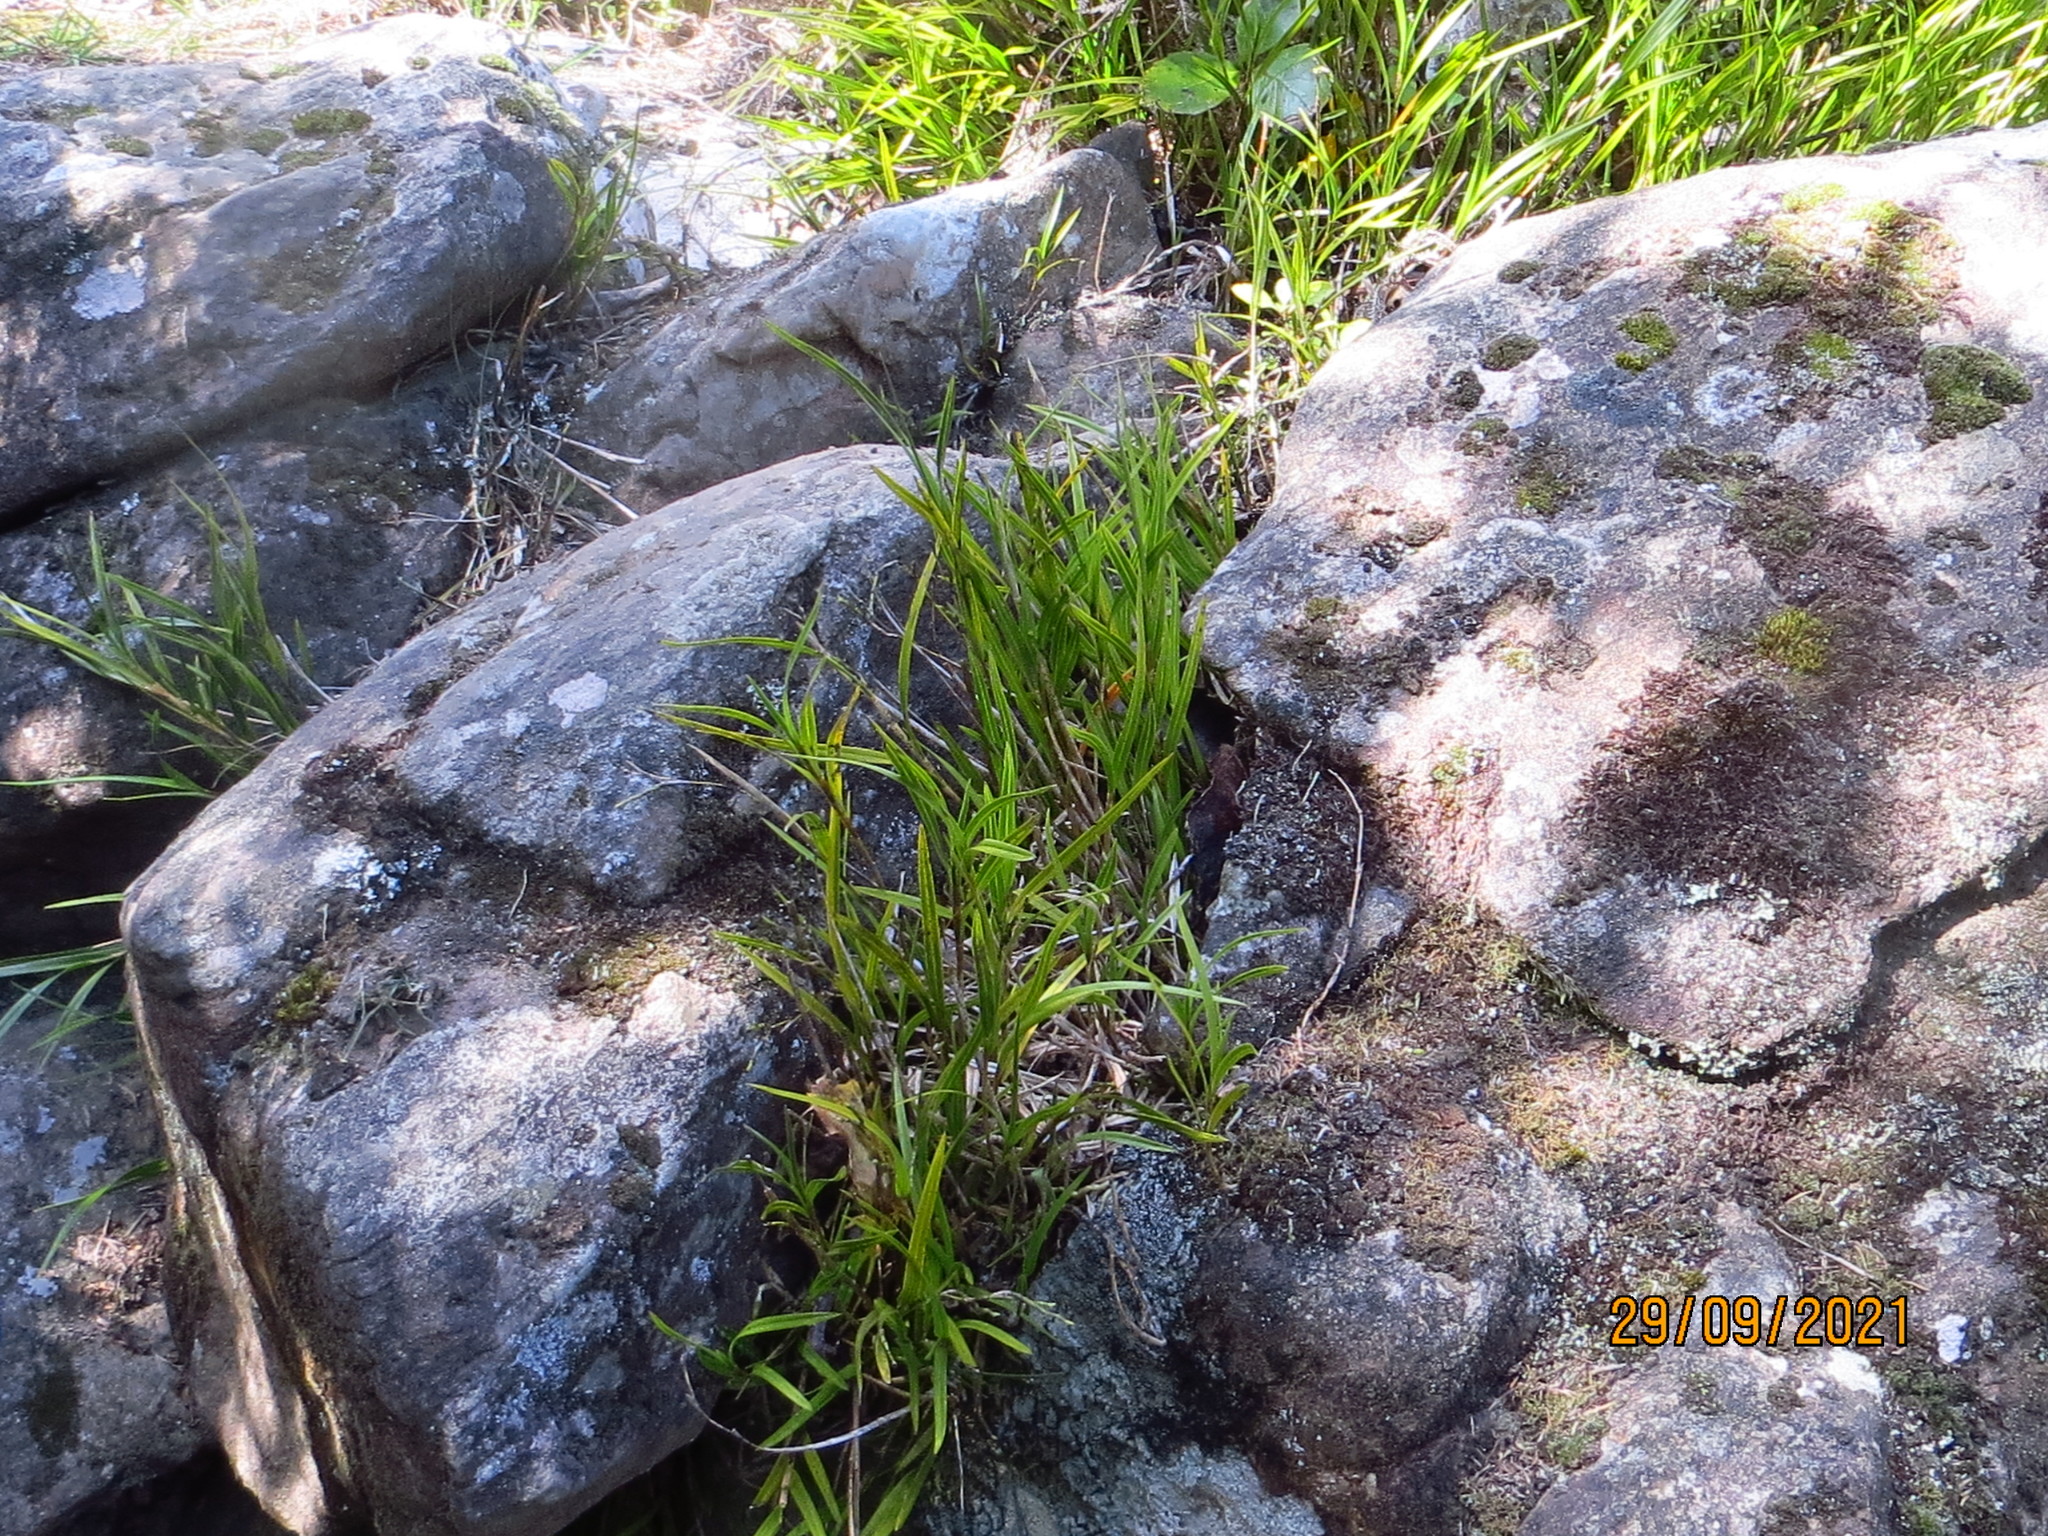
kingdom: Plantae
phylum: Tracheophyta
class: Liliopsida
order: Asparagales
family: Orchidaceae
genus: Earina
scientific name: Earina mucronata
